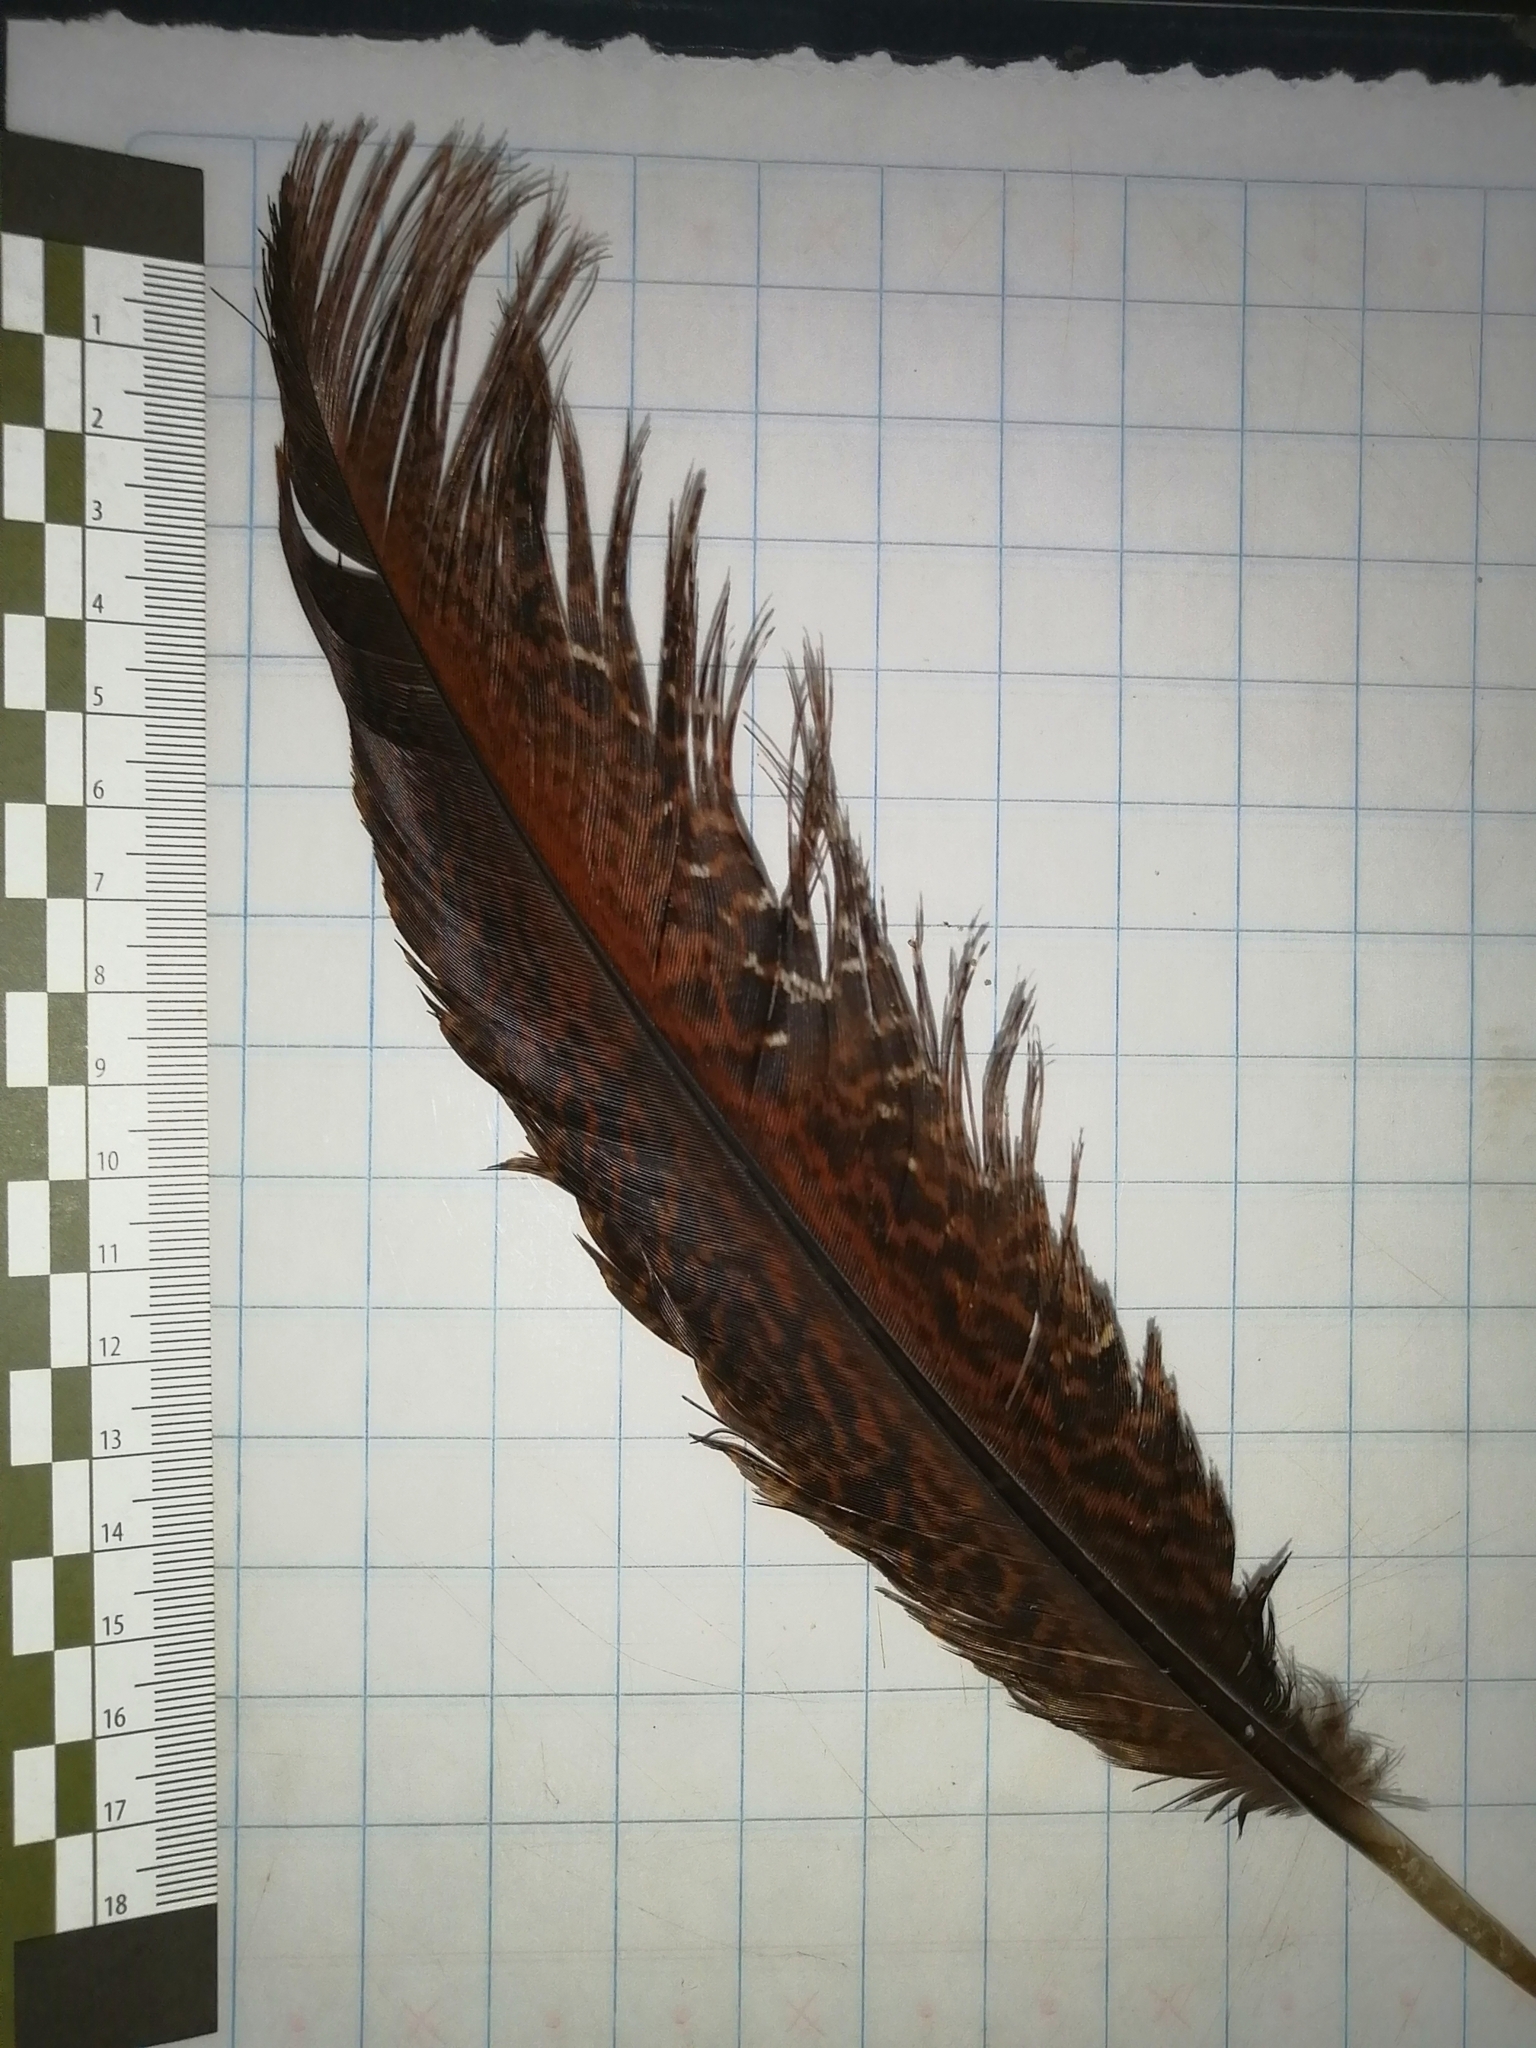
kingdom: Animalia
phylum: Chordata
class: Aves
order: Galliformes
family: Cracidae
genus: Penelope
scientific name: Penelope purpurascens
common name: Crested guan
